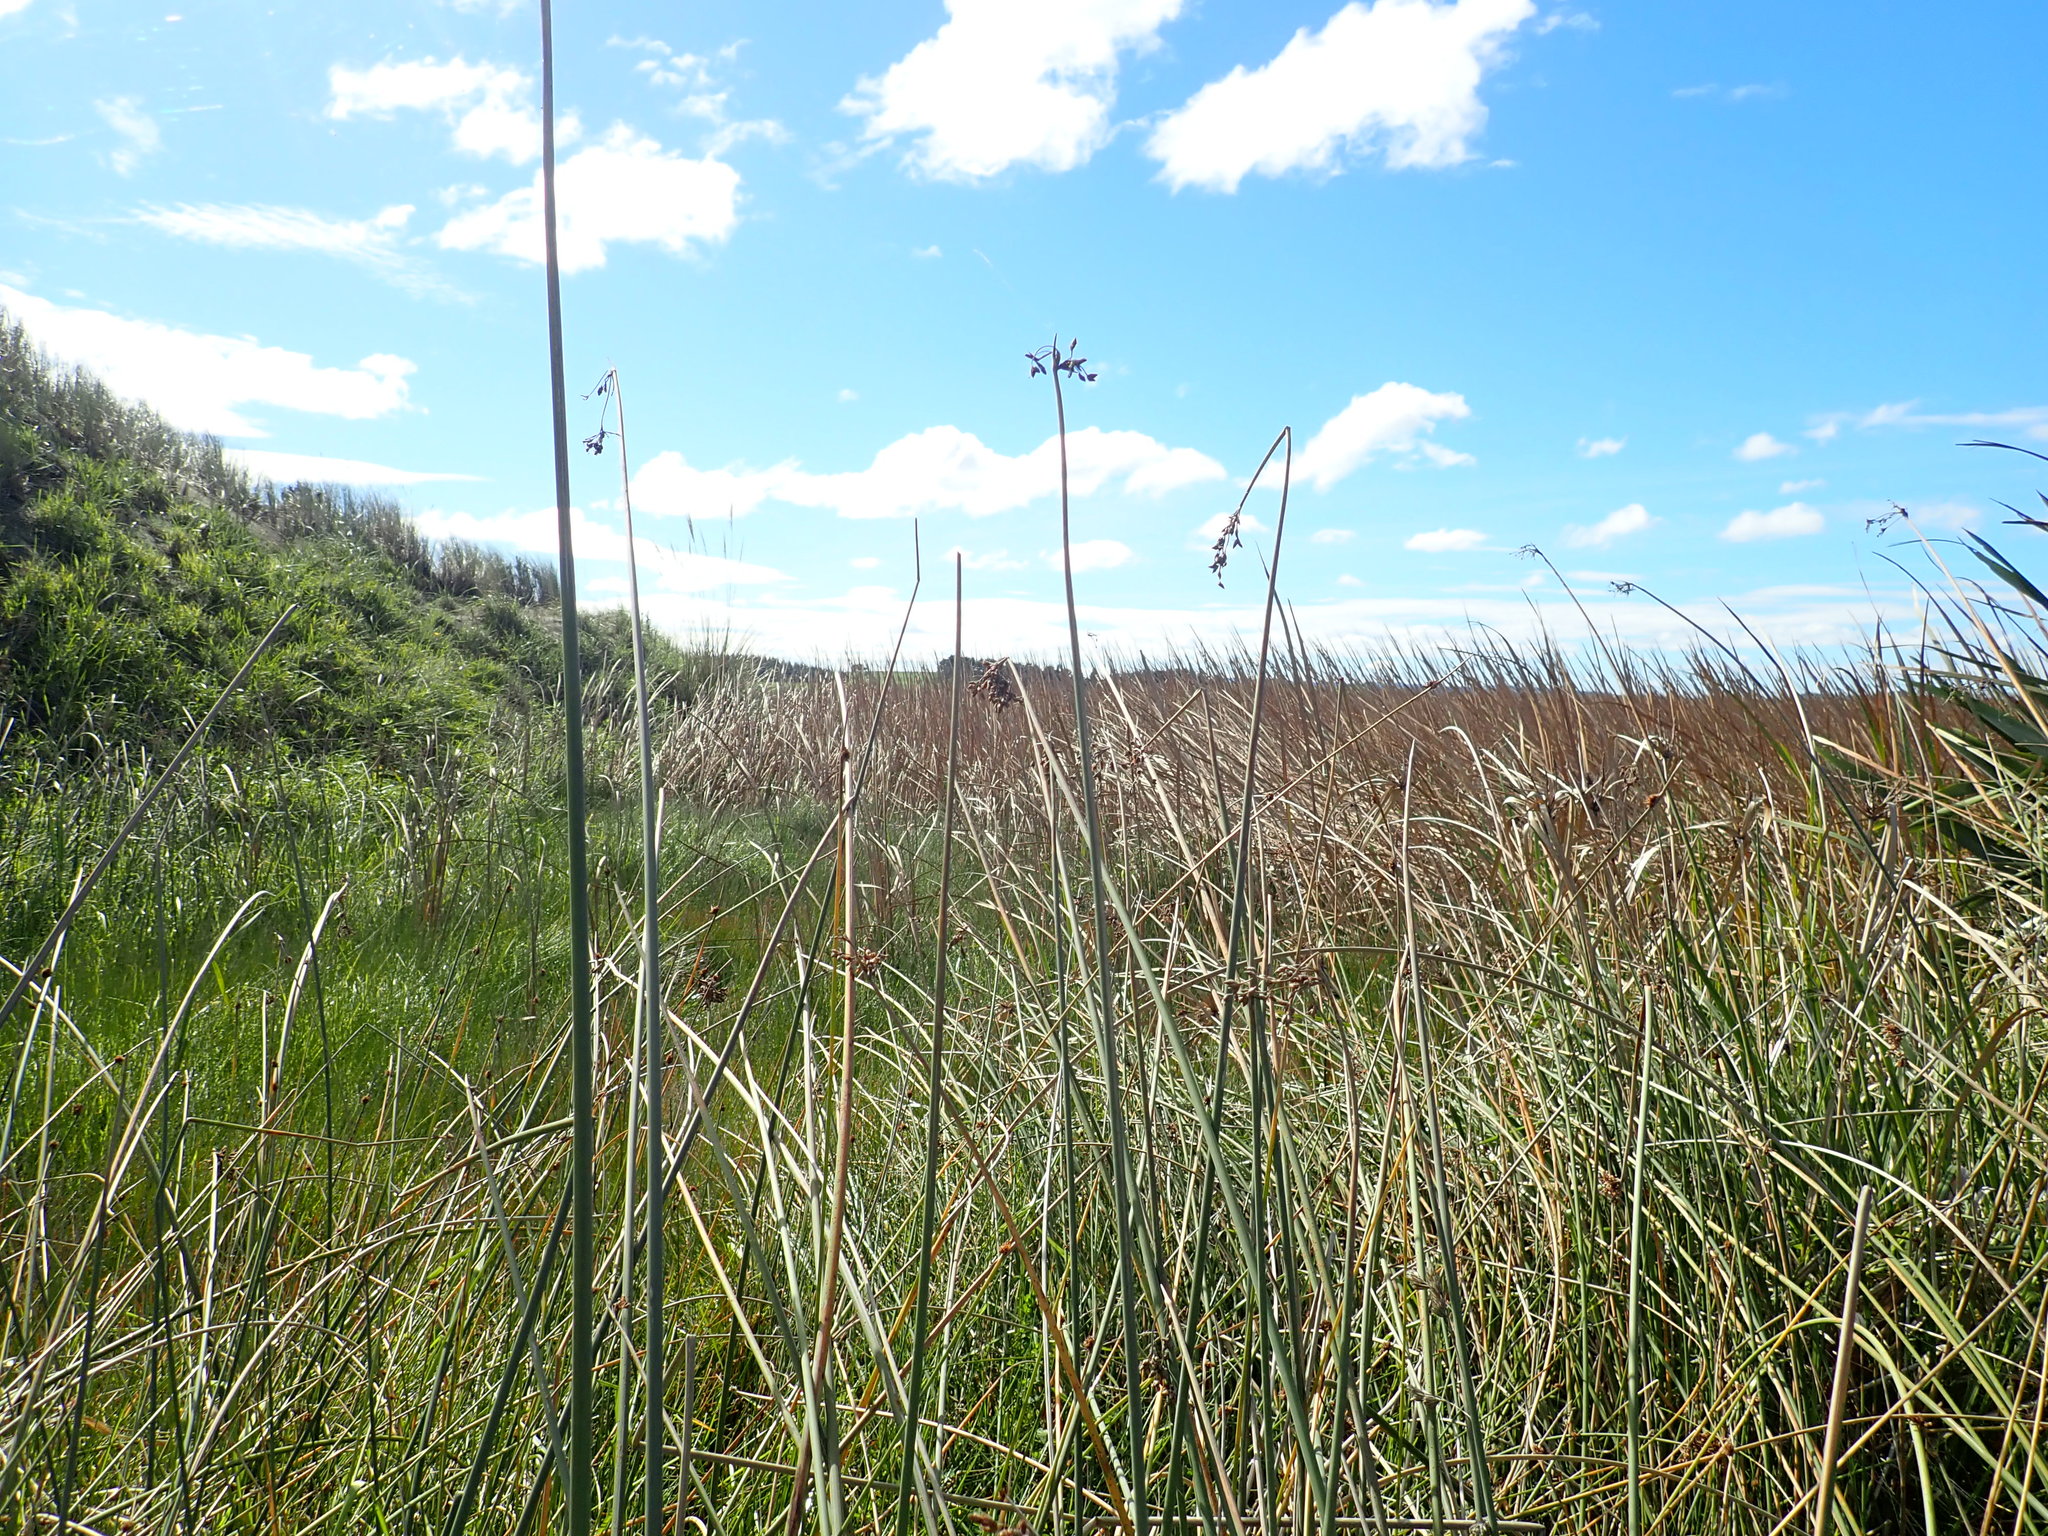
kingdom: Plantae
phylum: Tracheophyta
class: Liliopsida
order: Poales
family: Cyperaceae
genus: Schoenoplectus
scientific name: Schoenoplectus tabernaemontani
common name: Grey club-rush
